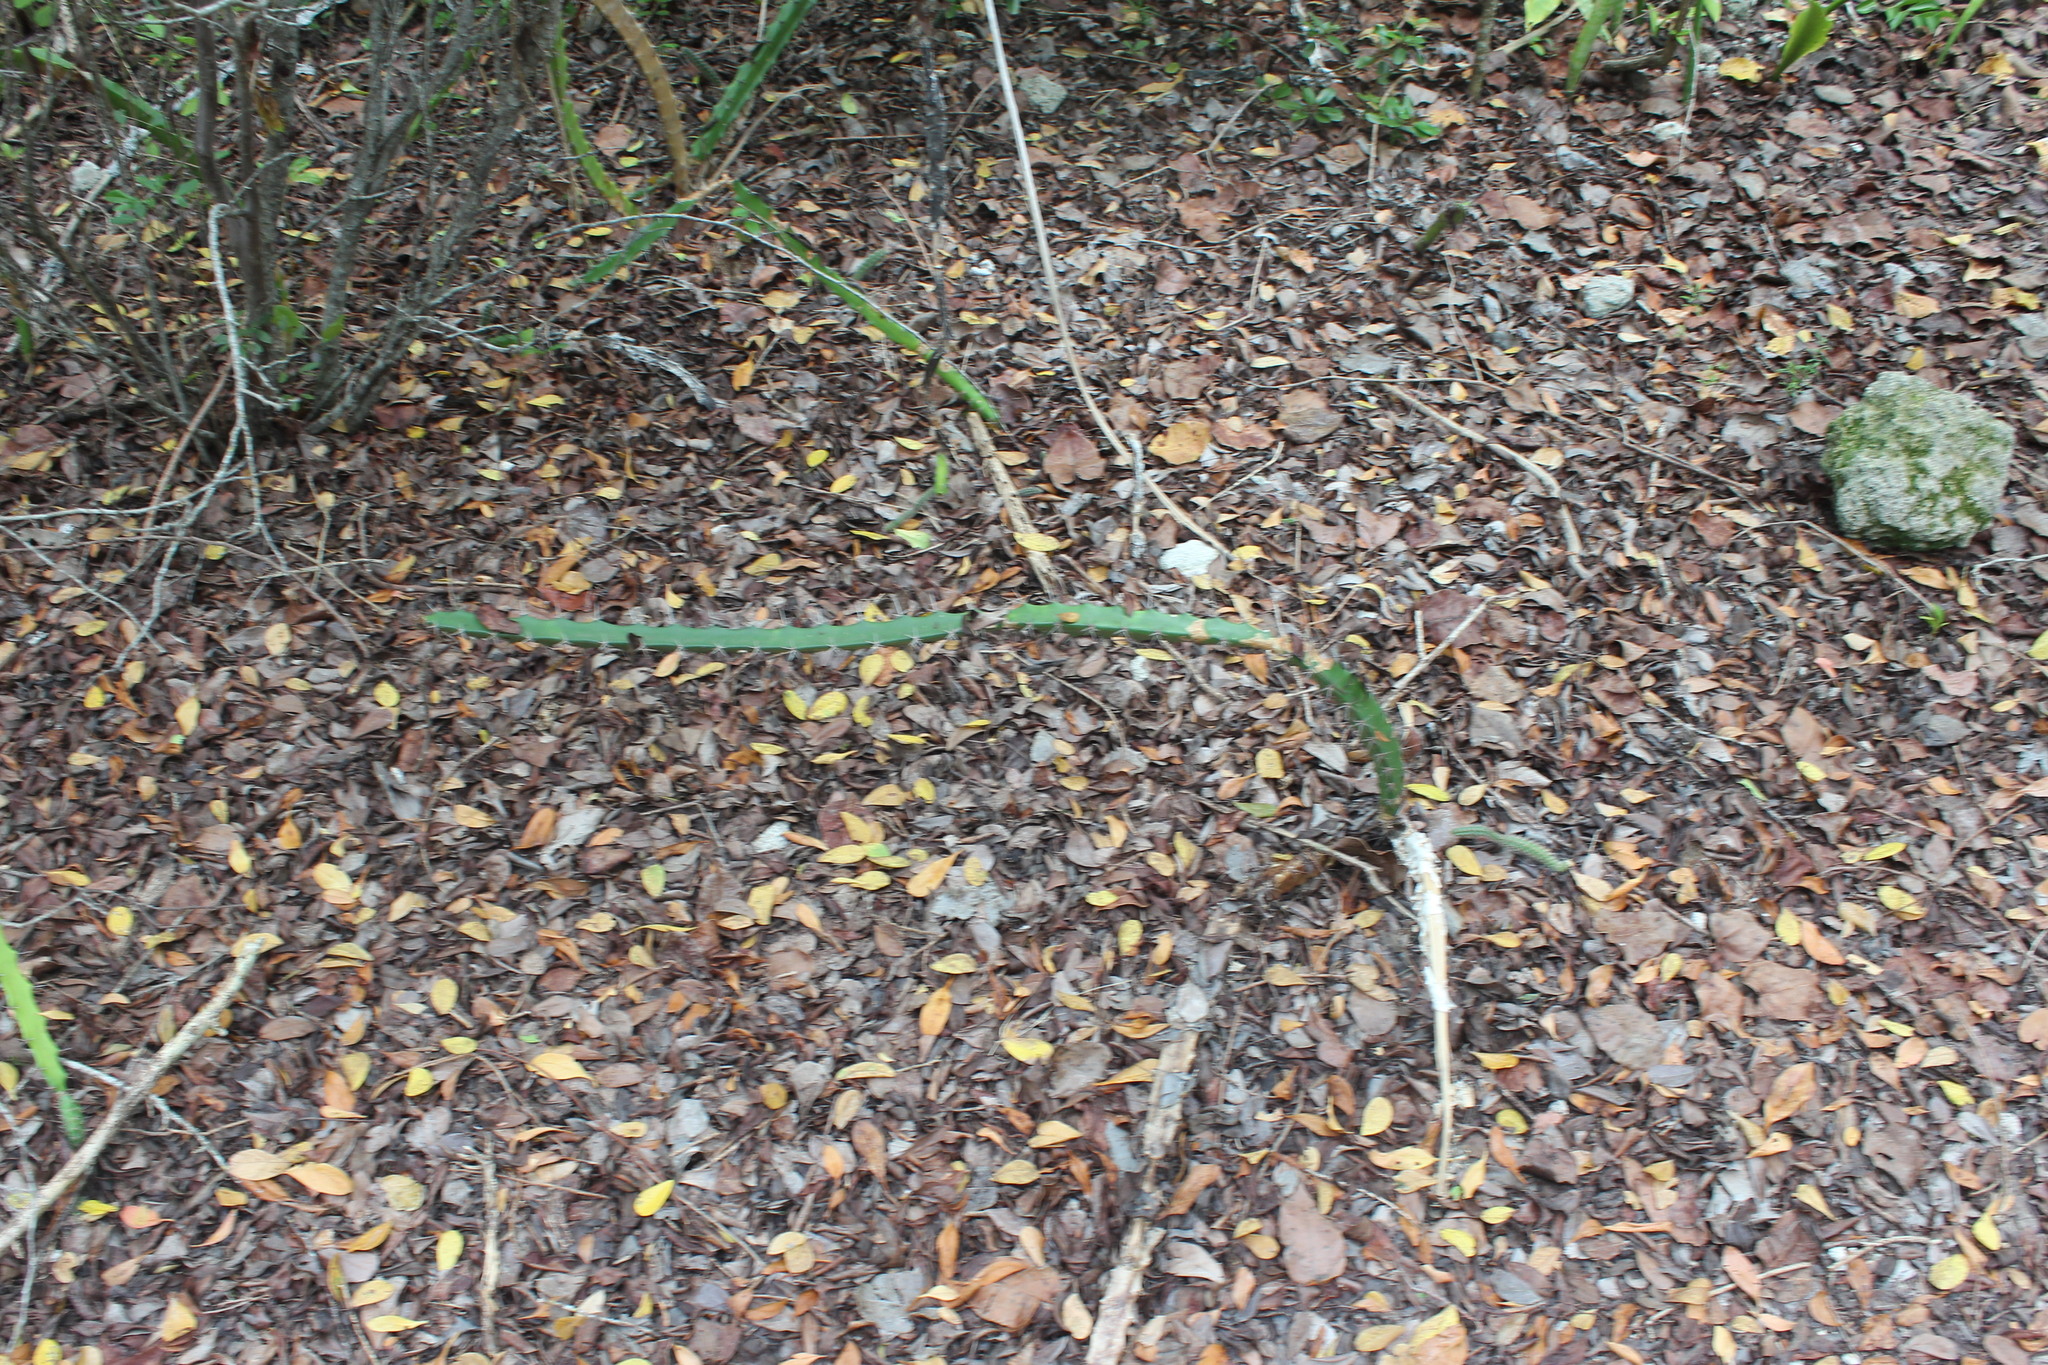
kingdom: Plantae
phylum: Tracheophyta
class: Magnoliopsida
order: Caryophyllales
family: Cactaceae
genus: Acanthocereus
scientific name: Acanthocereus tetragonus
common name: Triangle cactus
